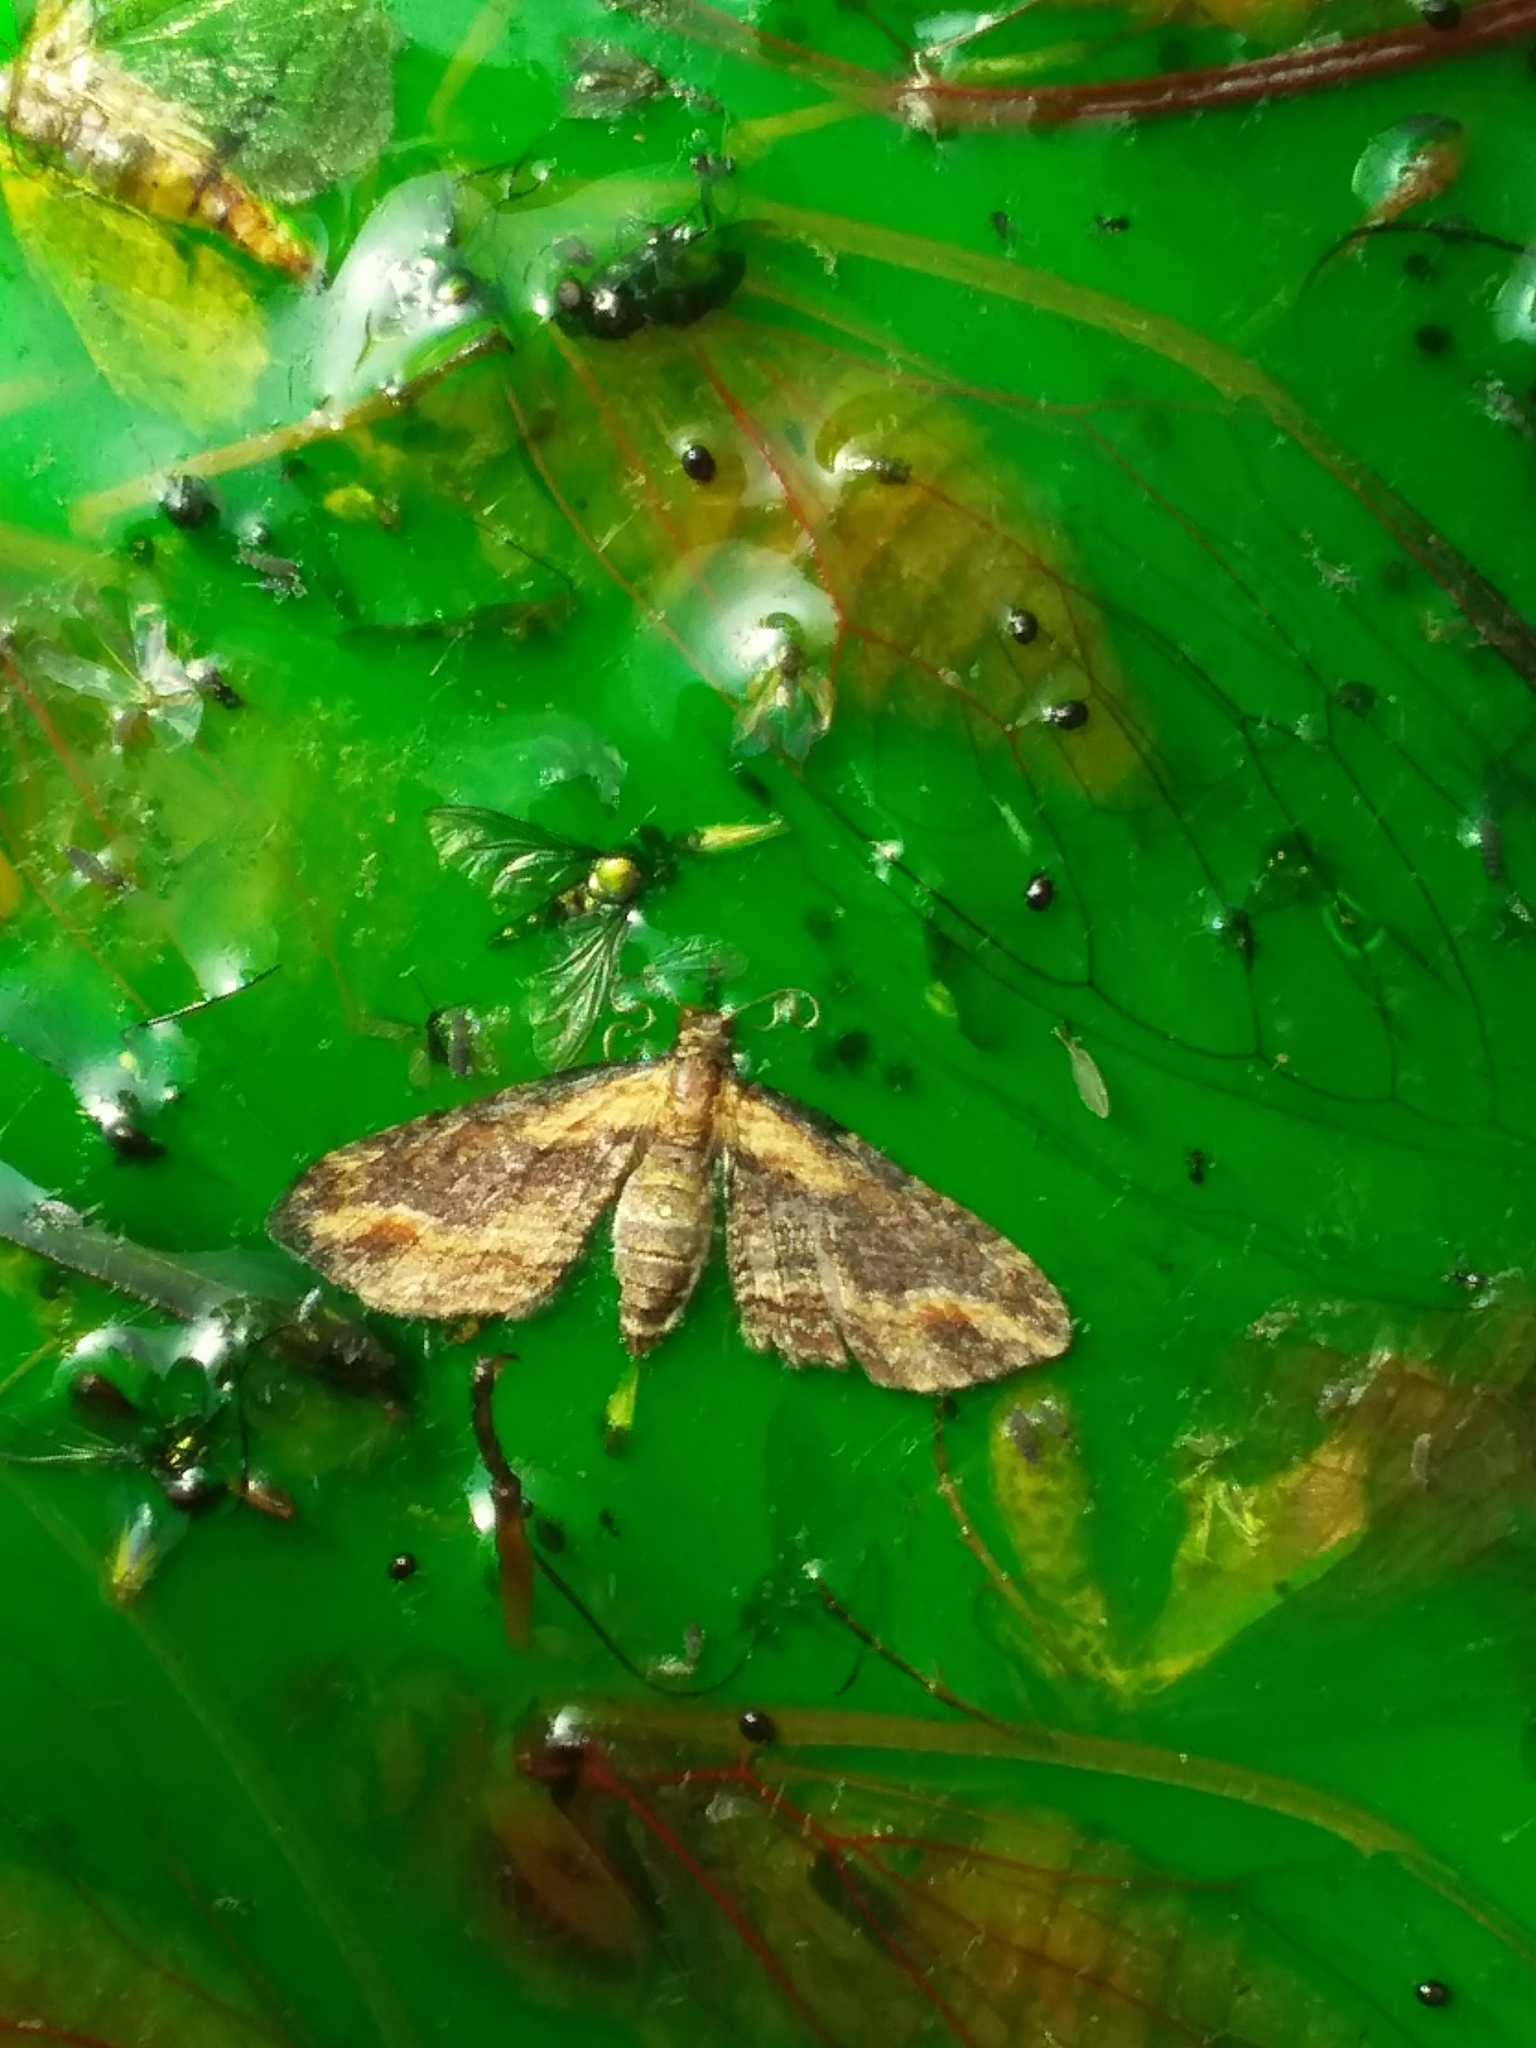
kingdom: Animalia
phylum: Arthropoda
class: Insecta
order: Lepidoptera
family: Geometridae
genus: Chloroclystis
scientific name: Chloroclystis filata
